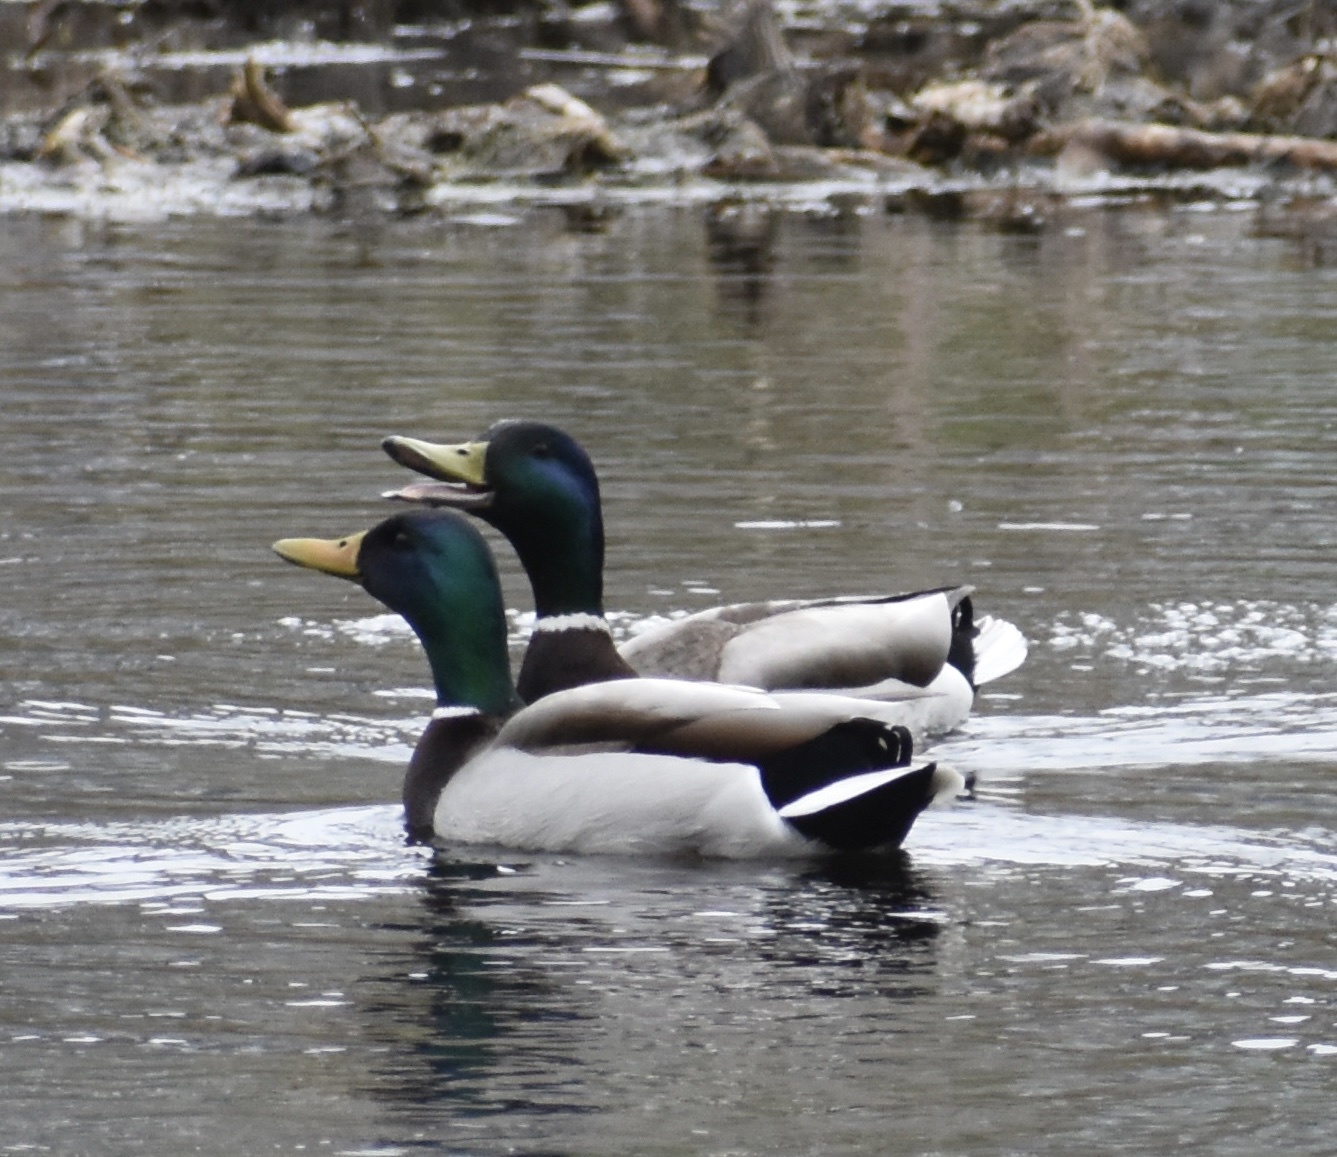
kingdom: Animalia
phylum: Chordata
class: Aves
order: Anseriformes
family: Anatidae
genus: Anas
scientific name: Anas platyrhynchos
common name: Mallard
